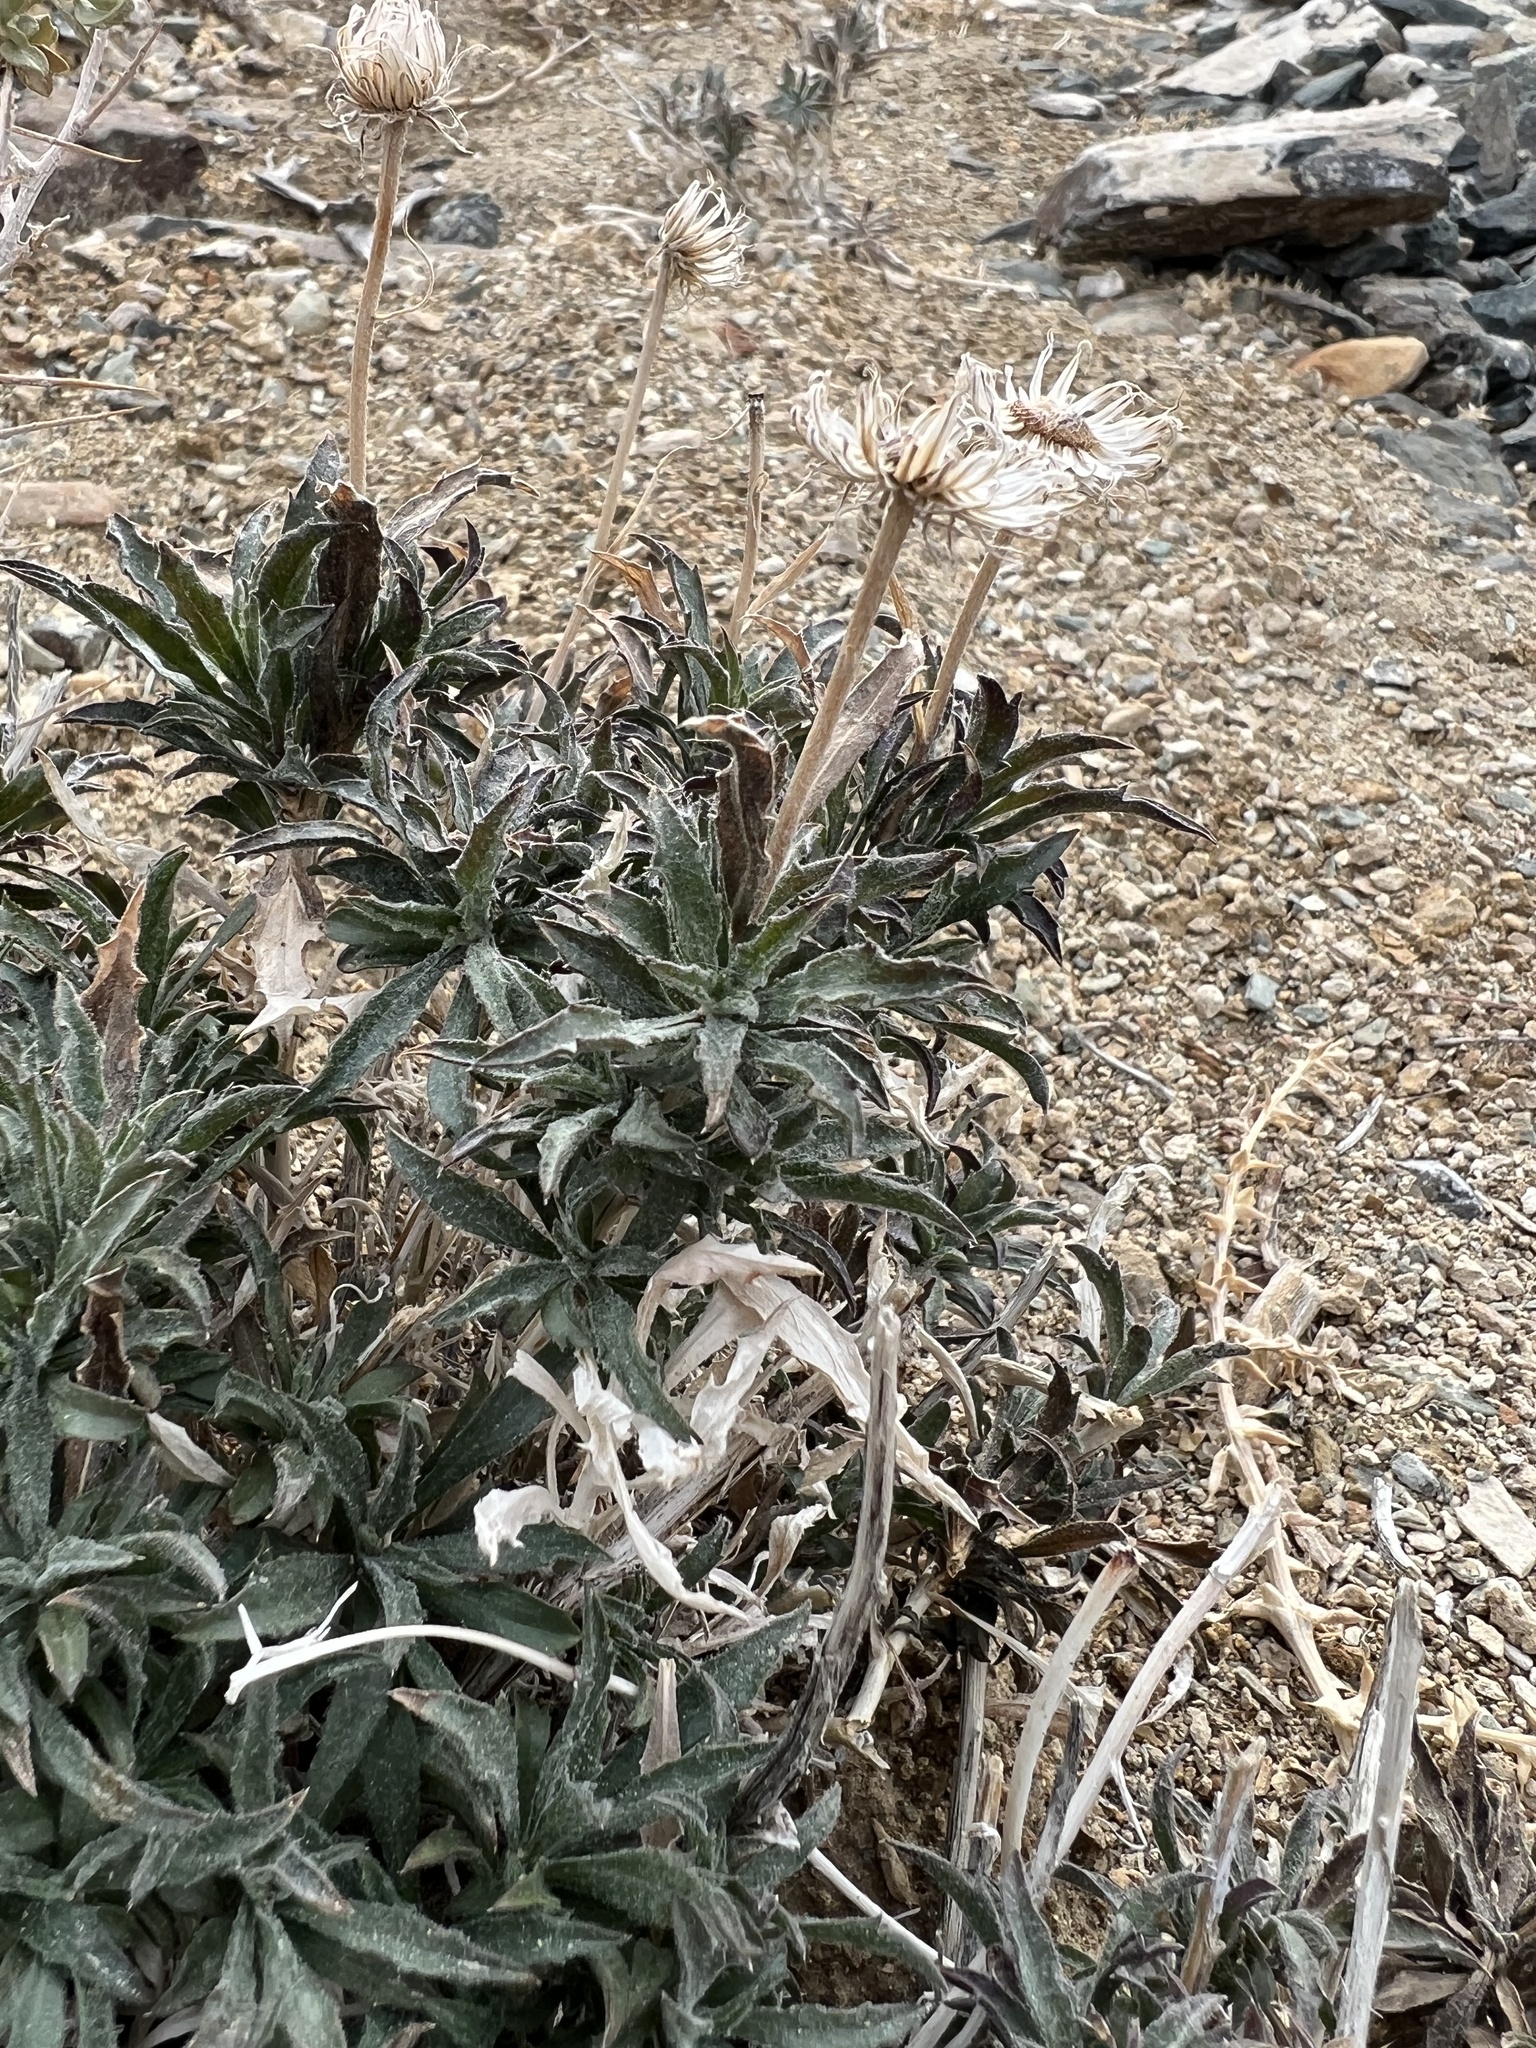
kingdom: Plantae
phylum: Tracheophyta
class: Magnoliopsida
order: Asterales
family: Asteraceae
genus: Xylorhiza
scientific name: Xylorhiza tortifolia
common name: Hurt-leaf woody-aster
